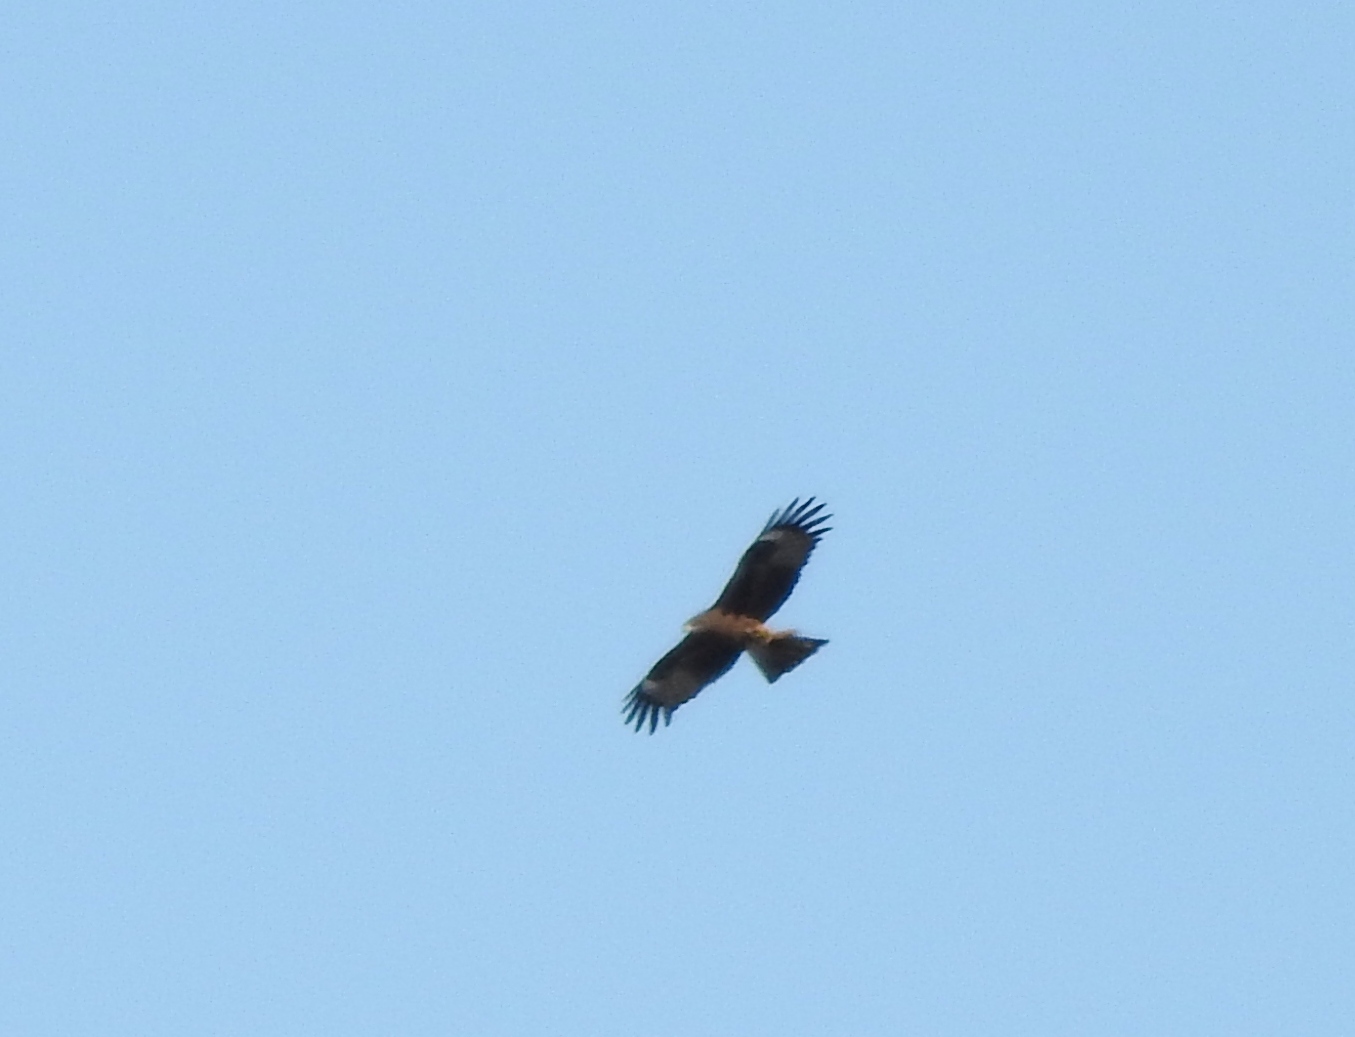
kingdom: Animalia
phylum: Chordata
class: Aves
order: Accipitriformes
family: Accipitridae
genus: Milvus
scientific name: Milvus migrans
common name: Black kite
